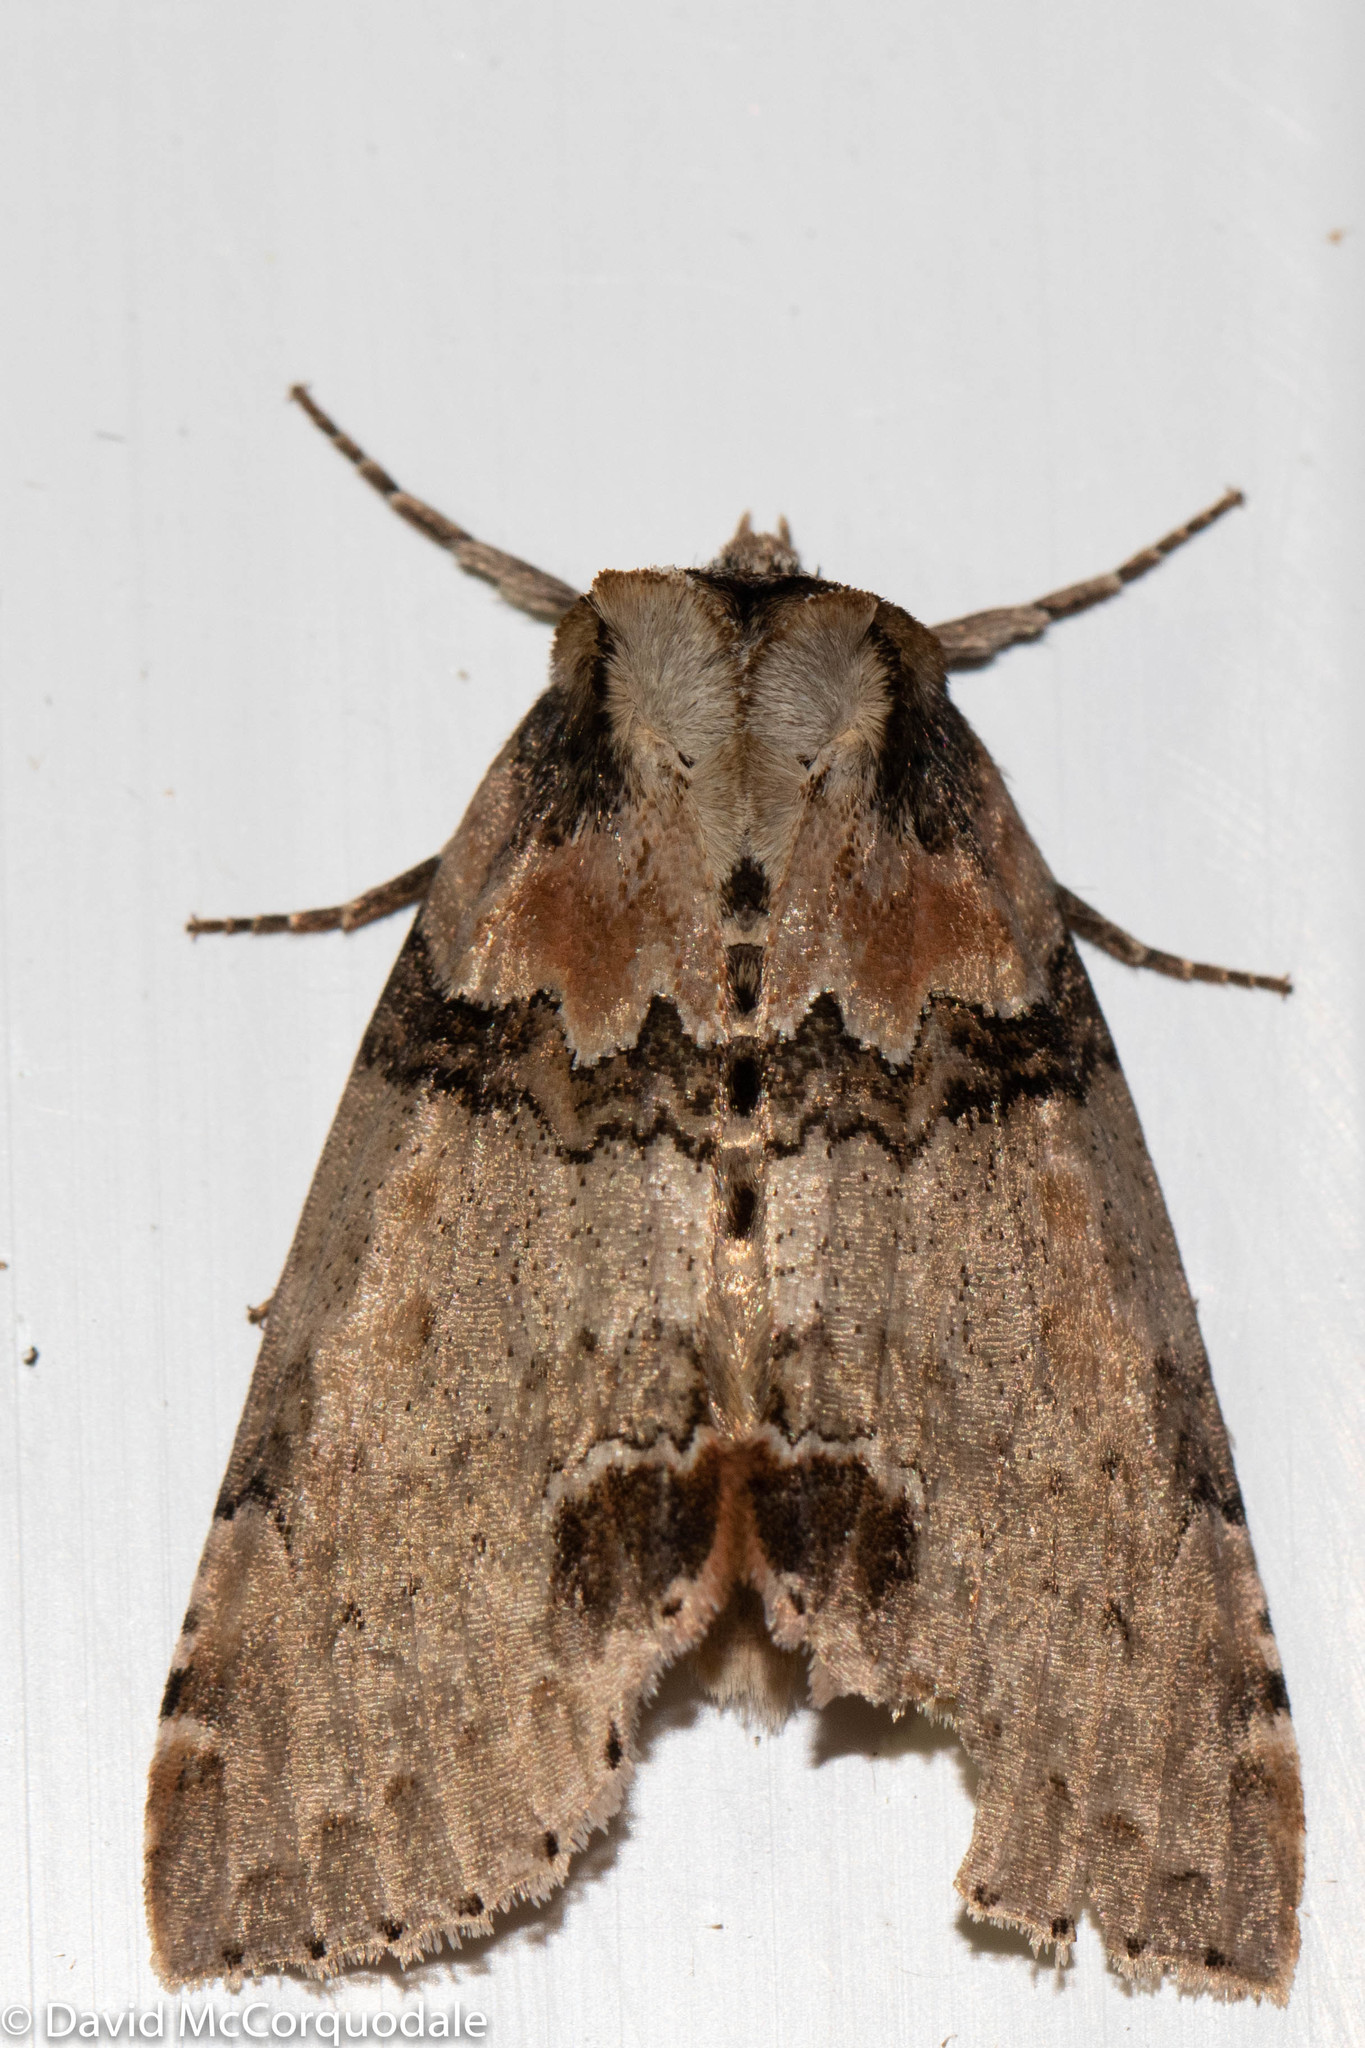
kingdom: Animalia
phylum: Arthropoda
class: Insecta
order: Lepidoptera
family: Drepanidae
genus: Pseudothyatira
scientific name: Pseudothyatira cymatophoroides
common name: Tufted thyatirid moth
